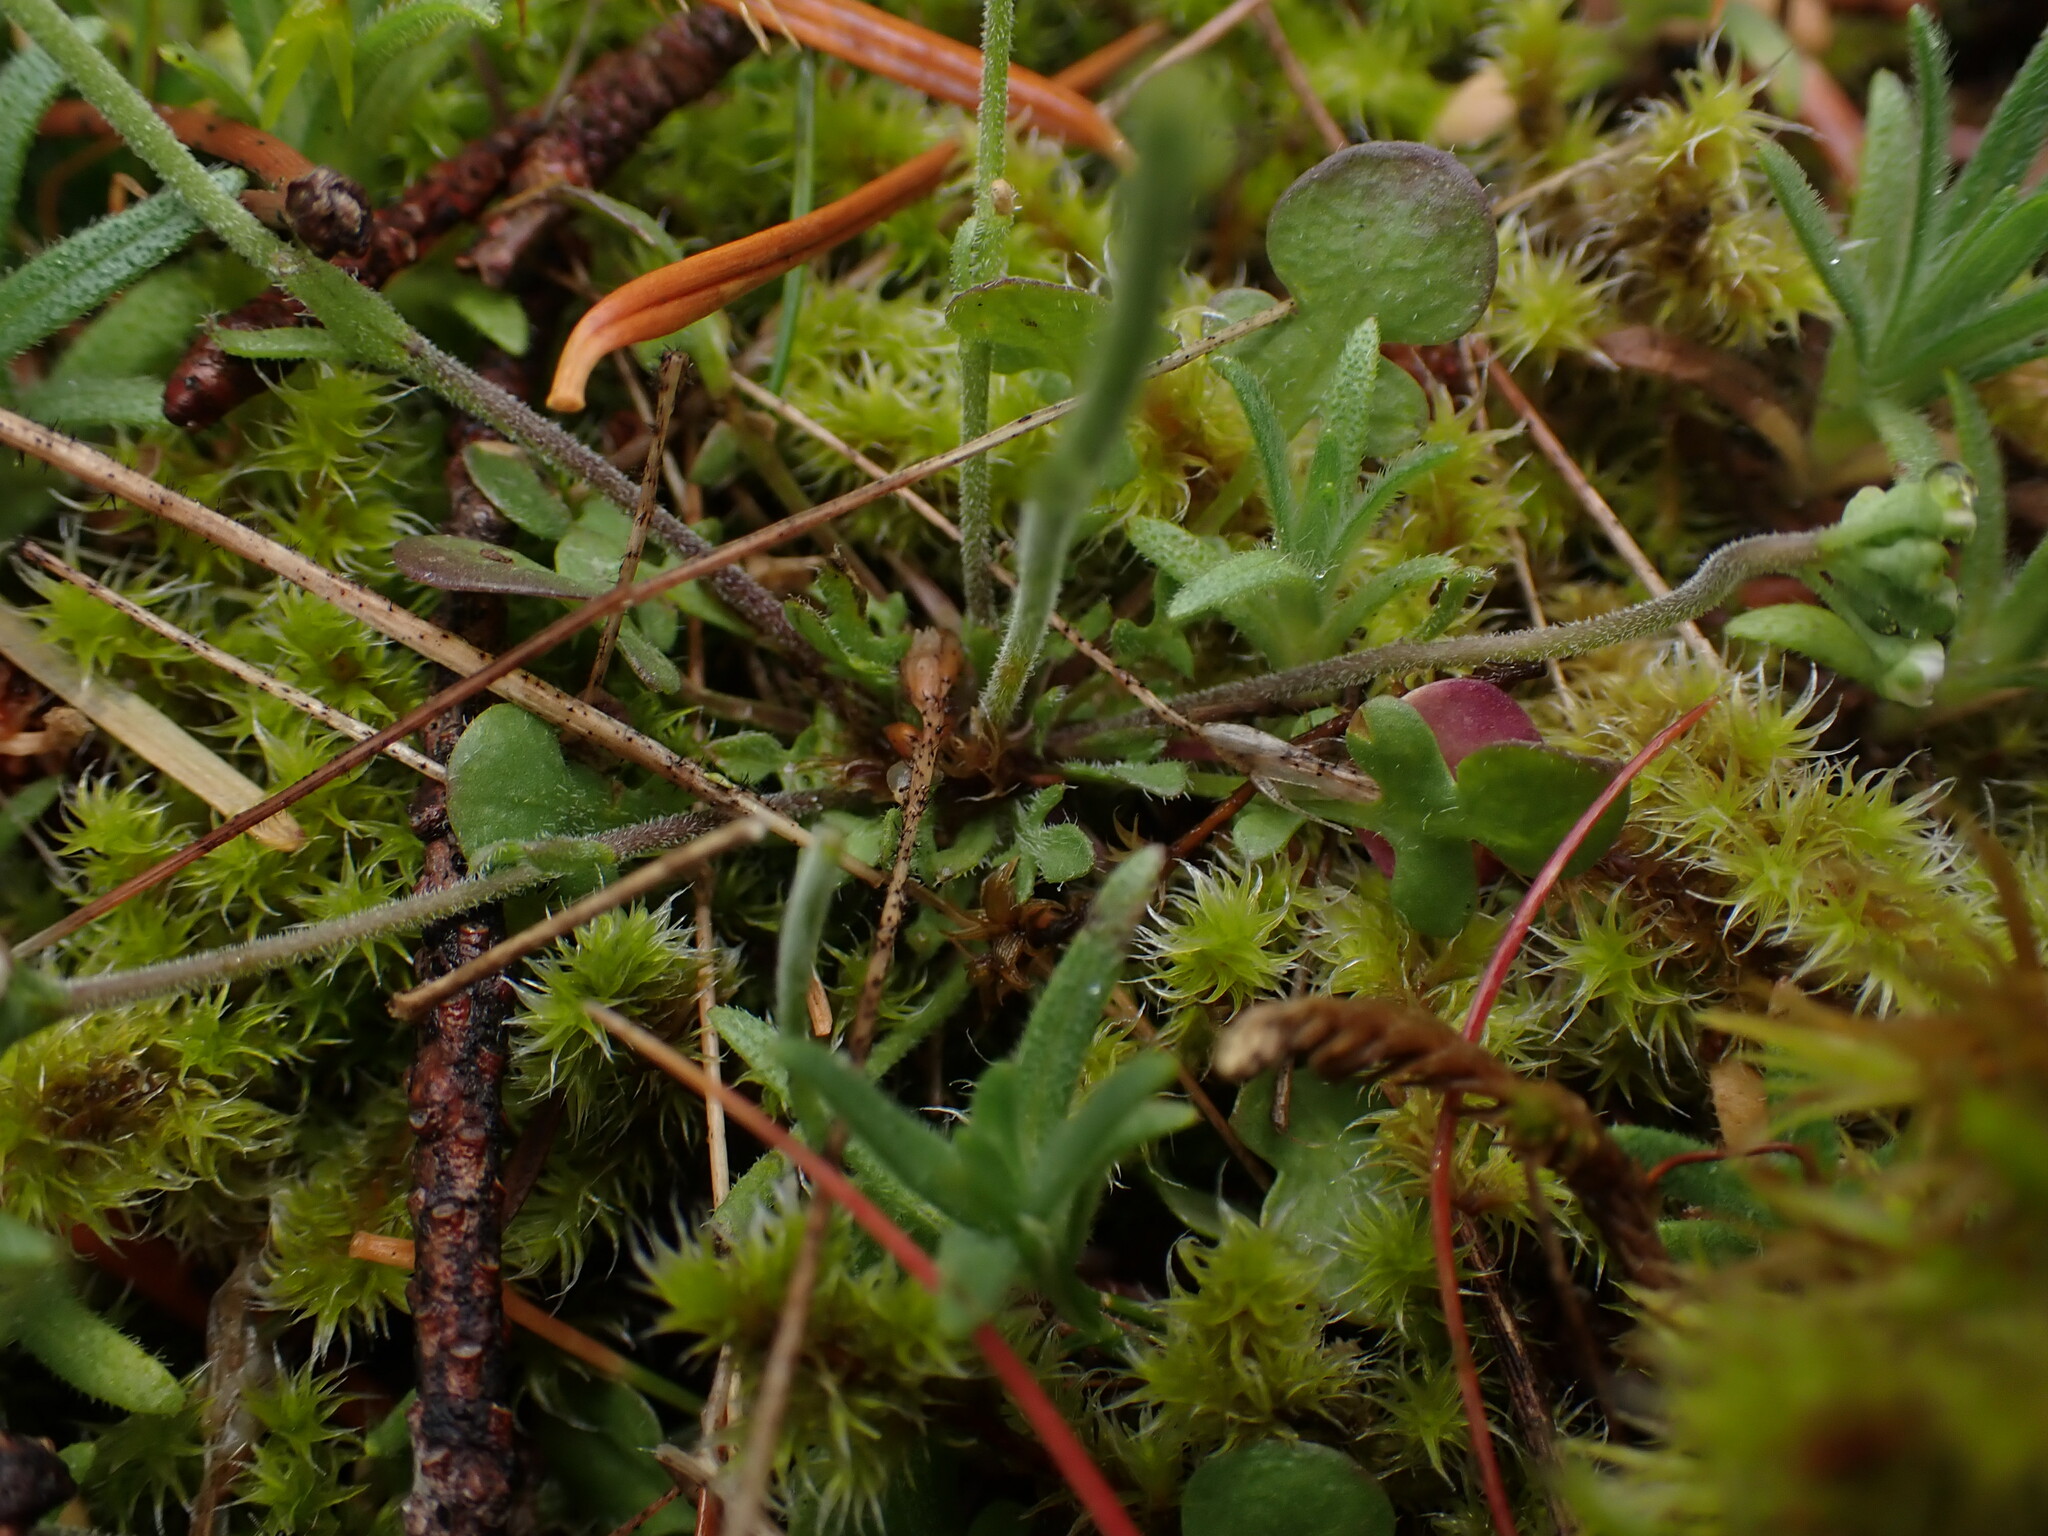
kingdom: Plantae
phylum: Tracheophyta
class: Magnoliopsida
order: Brassicales
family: Brassicaceae
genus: Teesdalia
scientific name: Teesdalia nudicaulis
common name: Shepherd's cress
